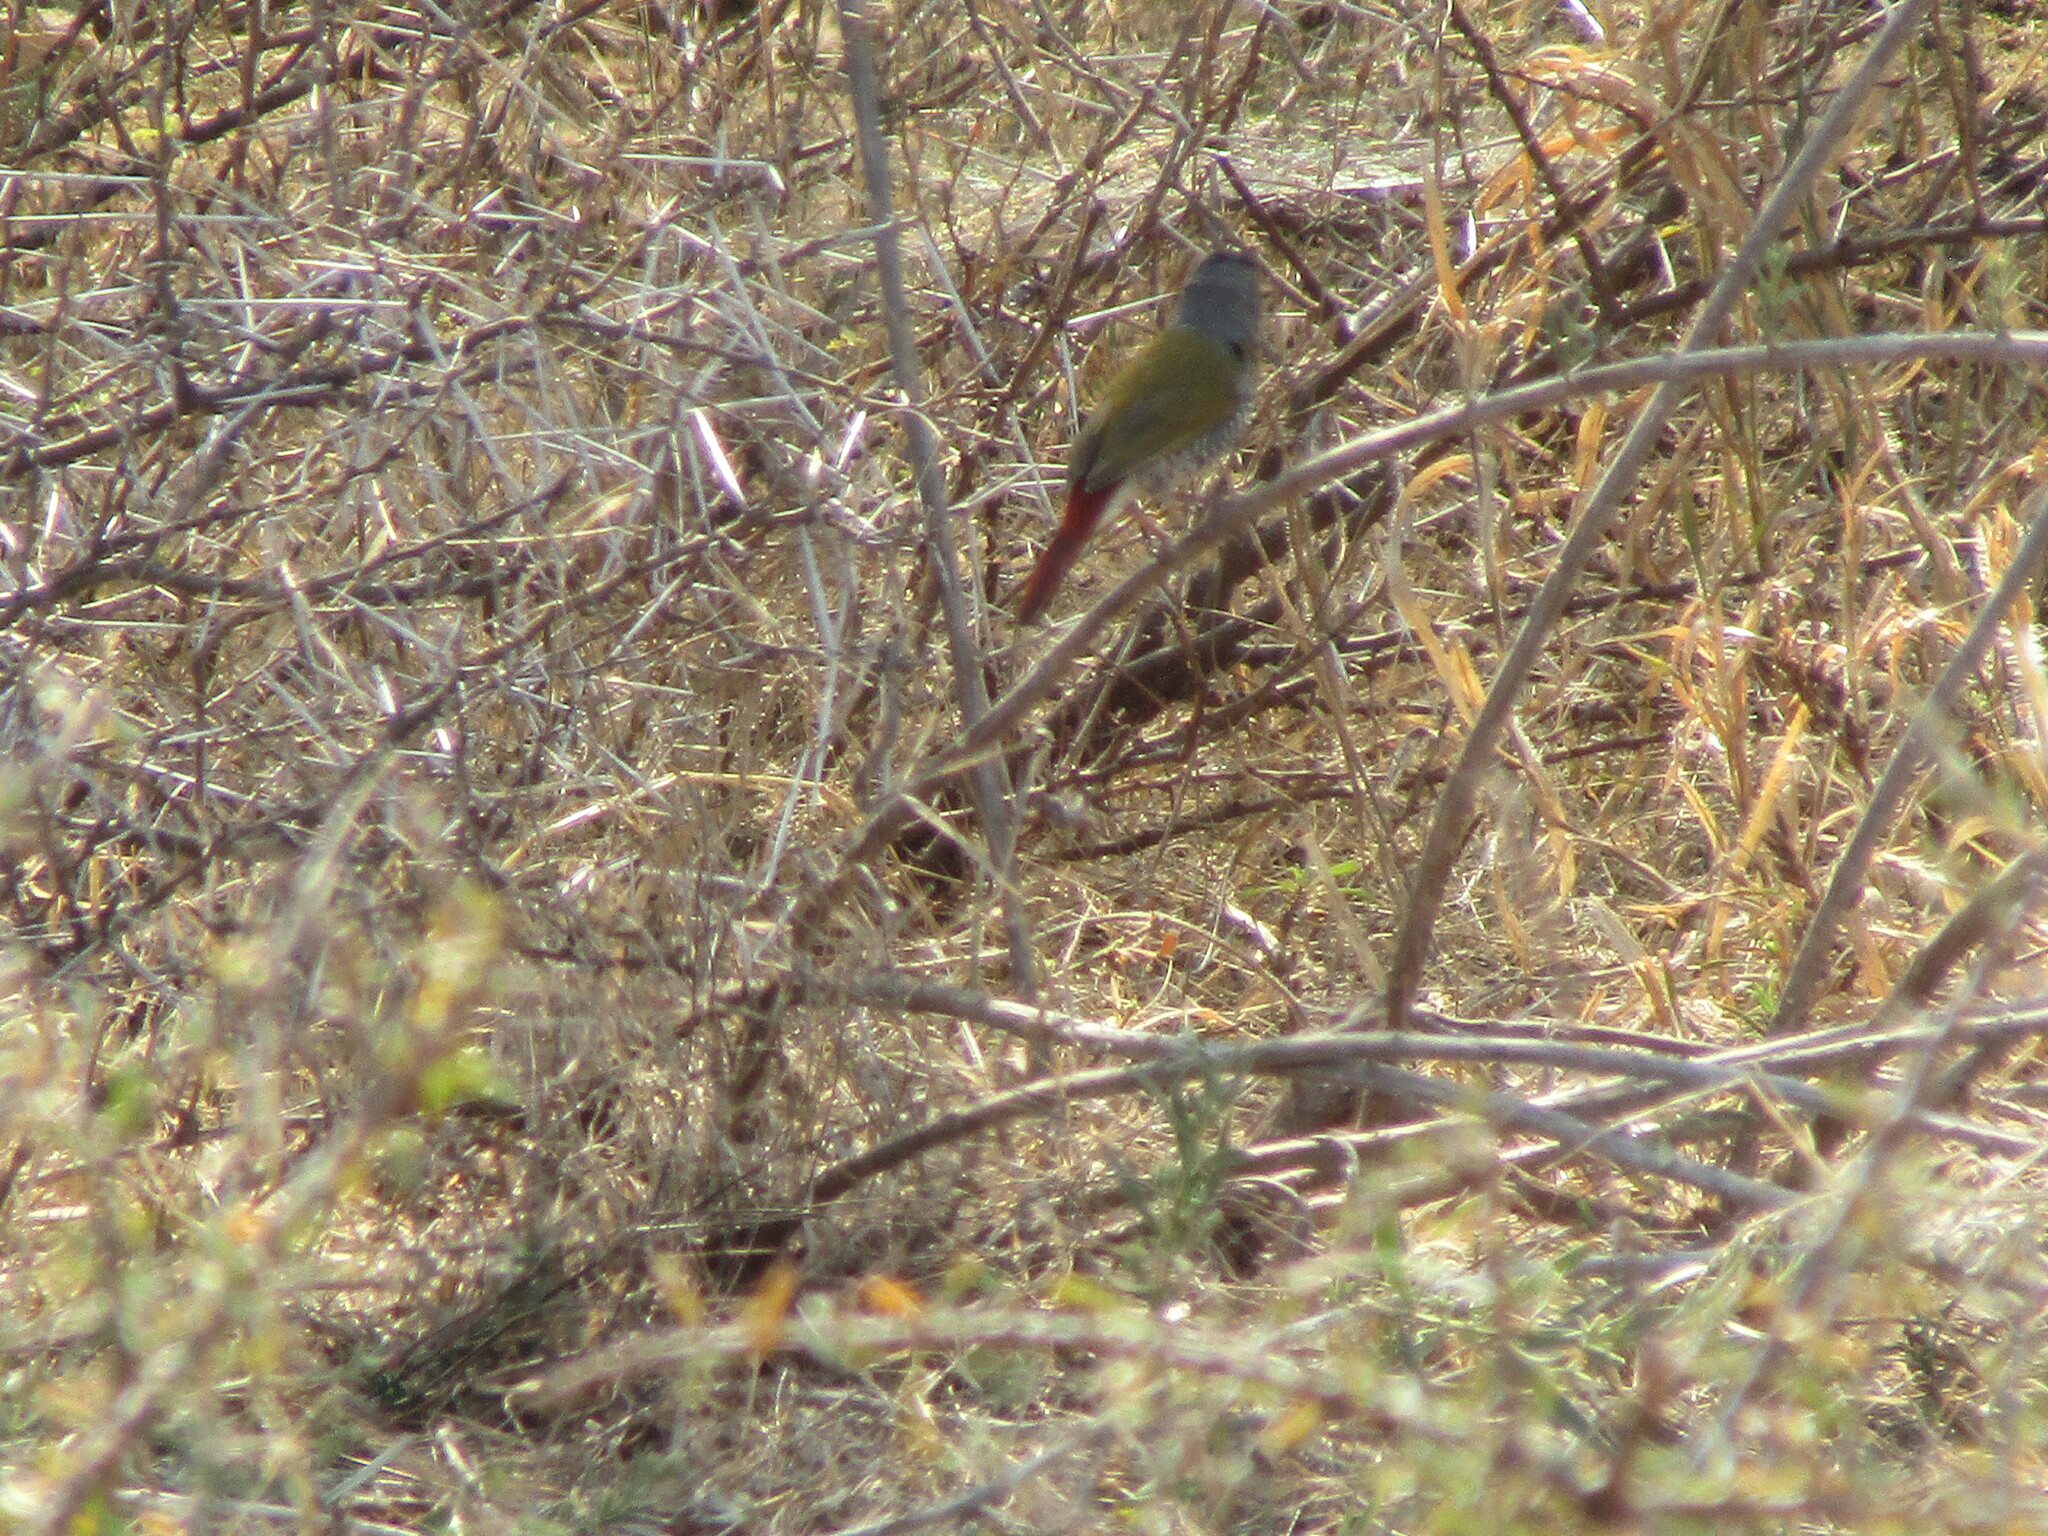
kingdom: Animalia
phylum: Chordata
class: Aves
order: Passeriformes
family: Estrildidae
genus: Pytilia
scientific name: Pytilia melba
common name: Green-winged pytilia
